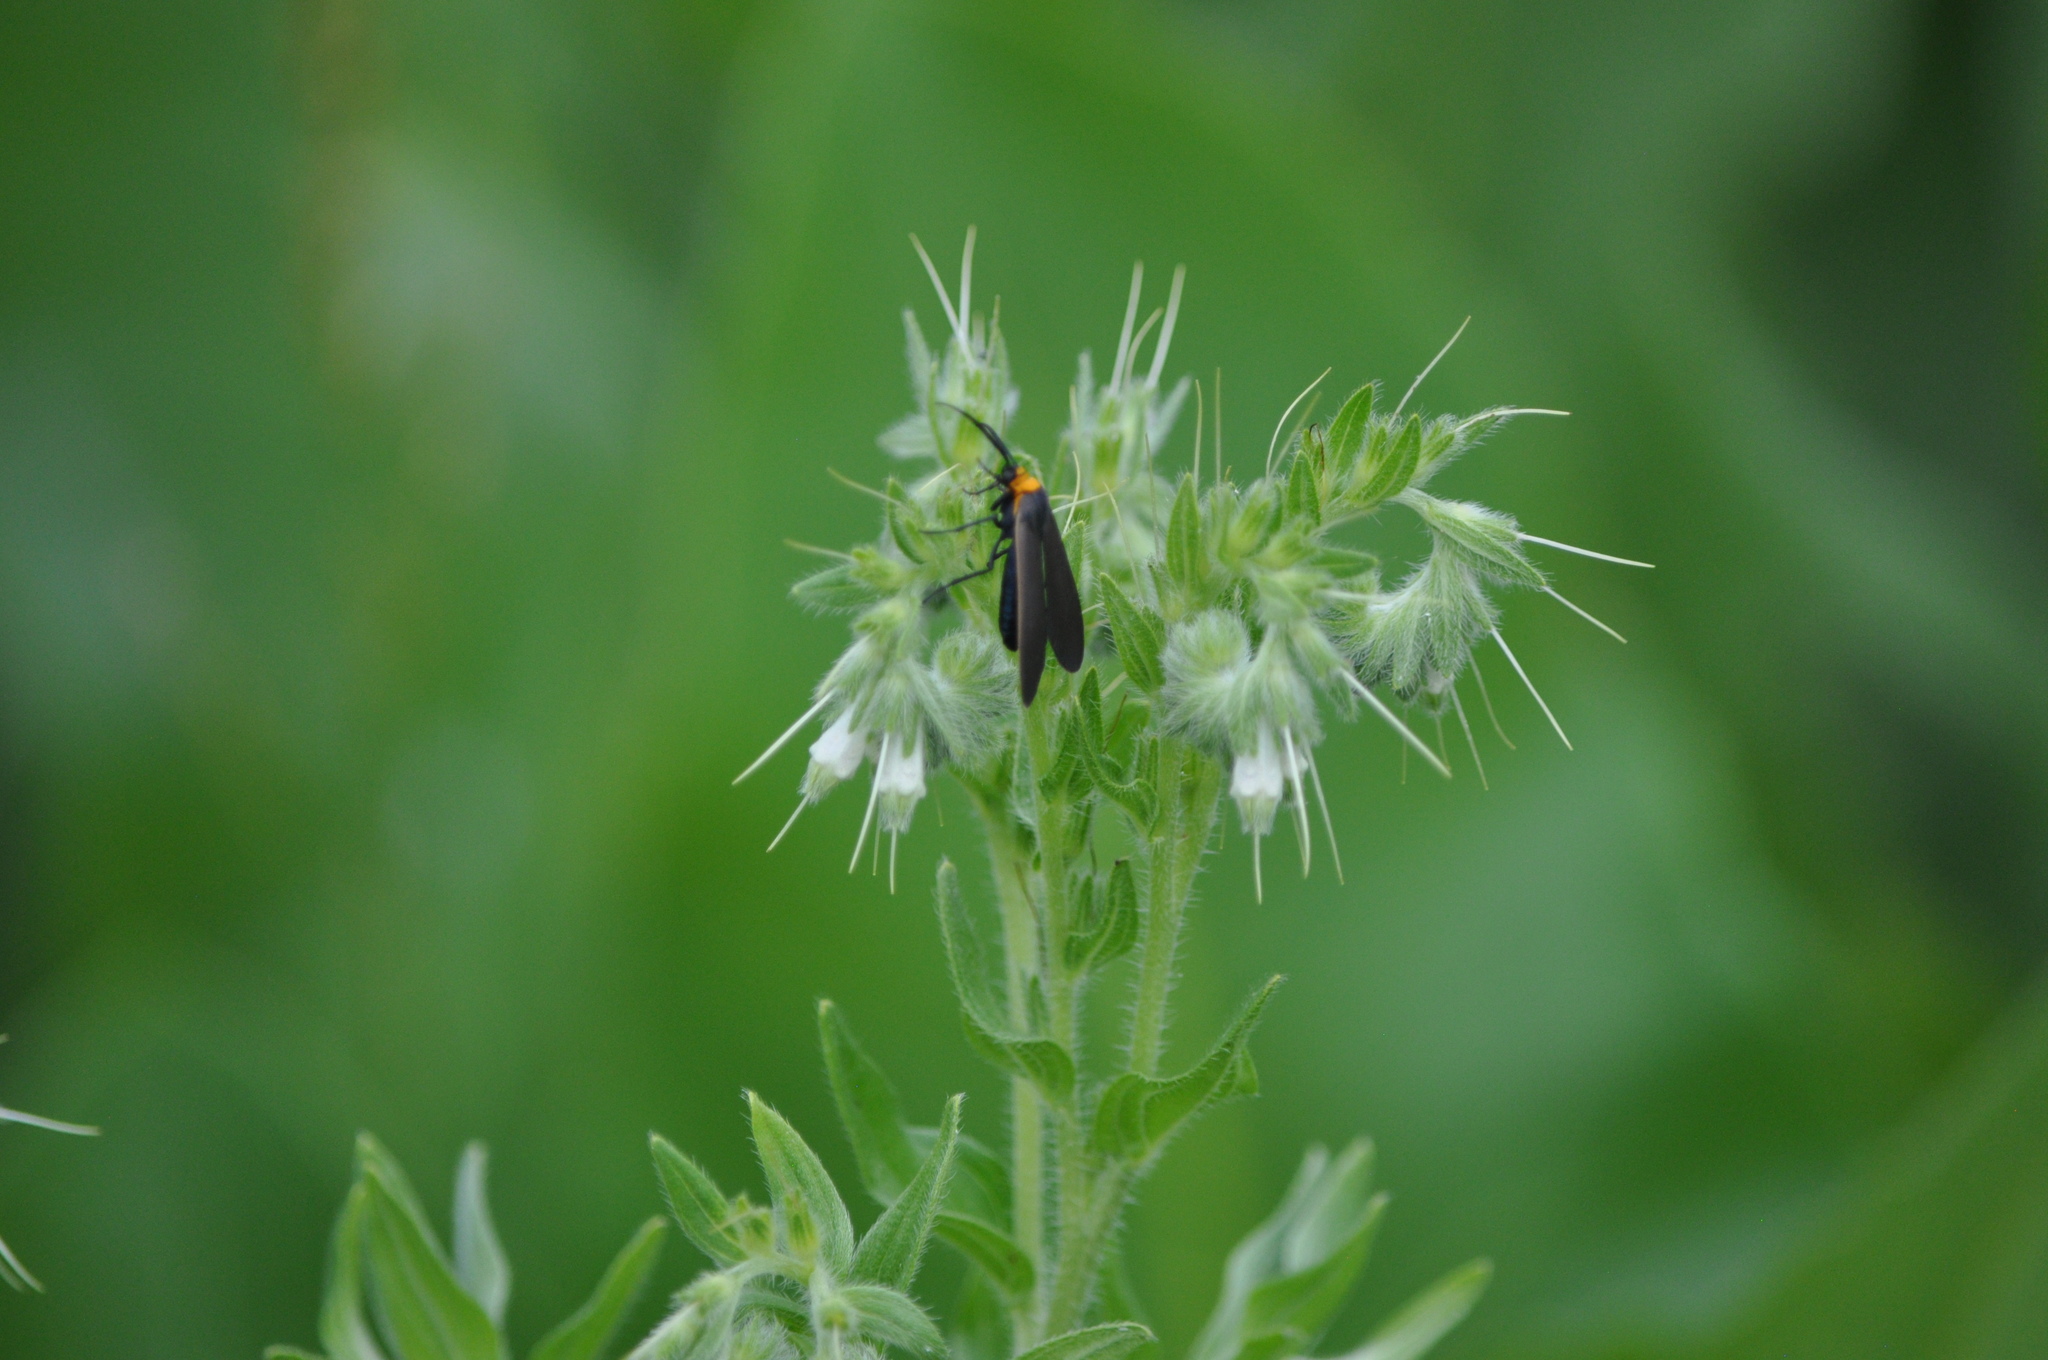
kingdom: Animalia
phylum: Arthropoda
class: Insecta
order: Lepidoptera
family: Erebidae
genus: Cisseps
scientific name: Cisseps fulvicollis
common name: Yellow-collared scape moth
